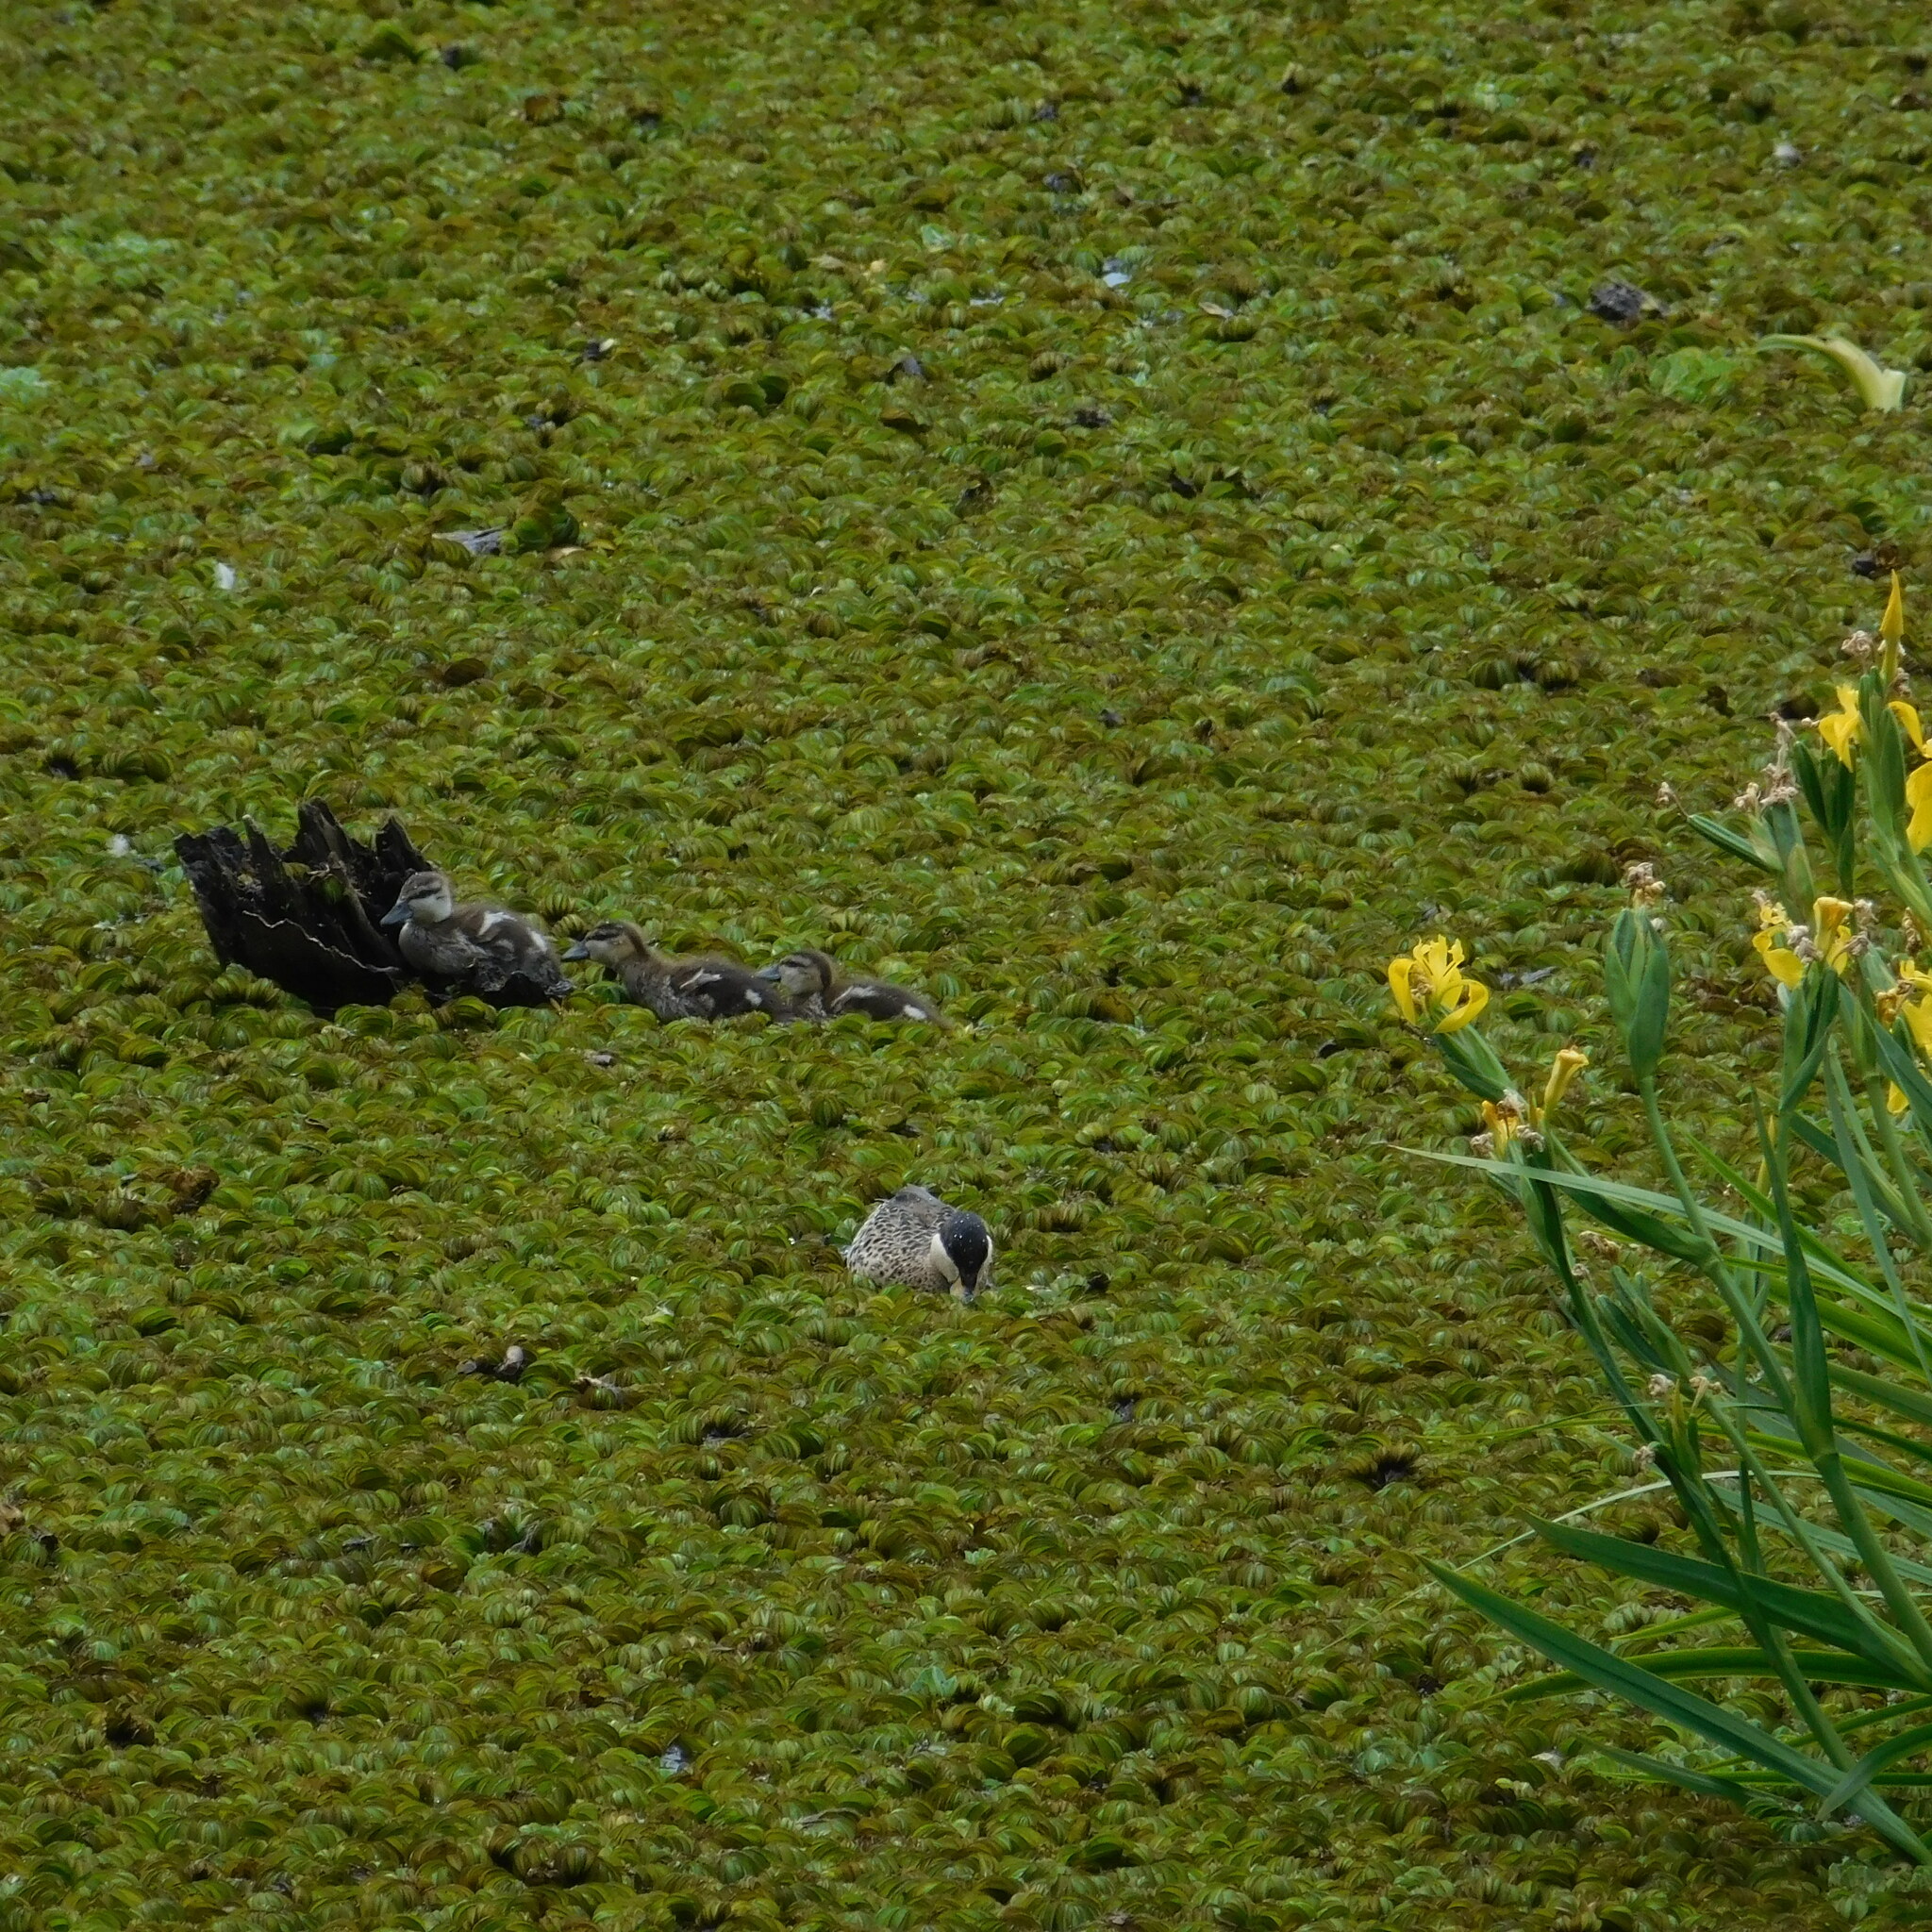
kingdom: Animalia
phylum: Chordata
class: Aves
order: Anseriformes
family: Anatidae
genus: Spatula
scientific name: Spatula versicolor
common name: Silver teal
